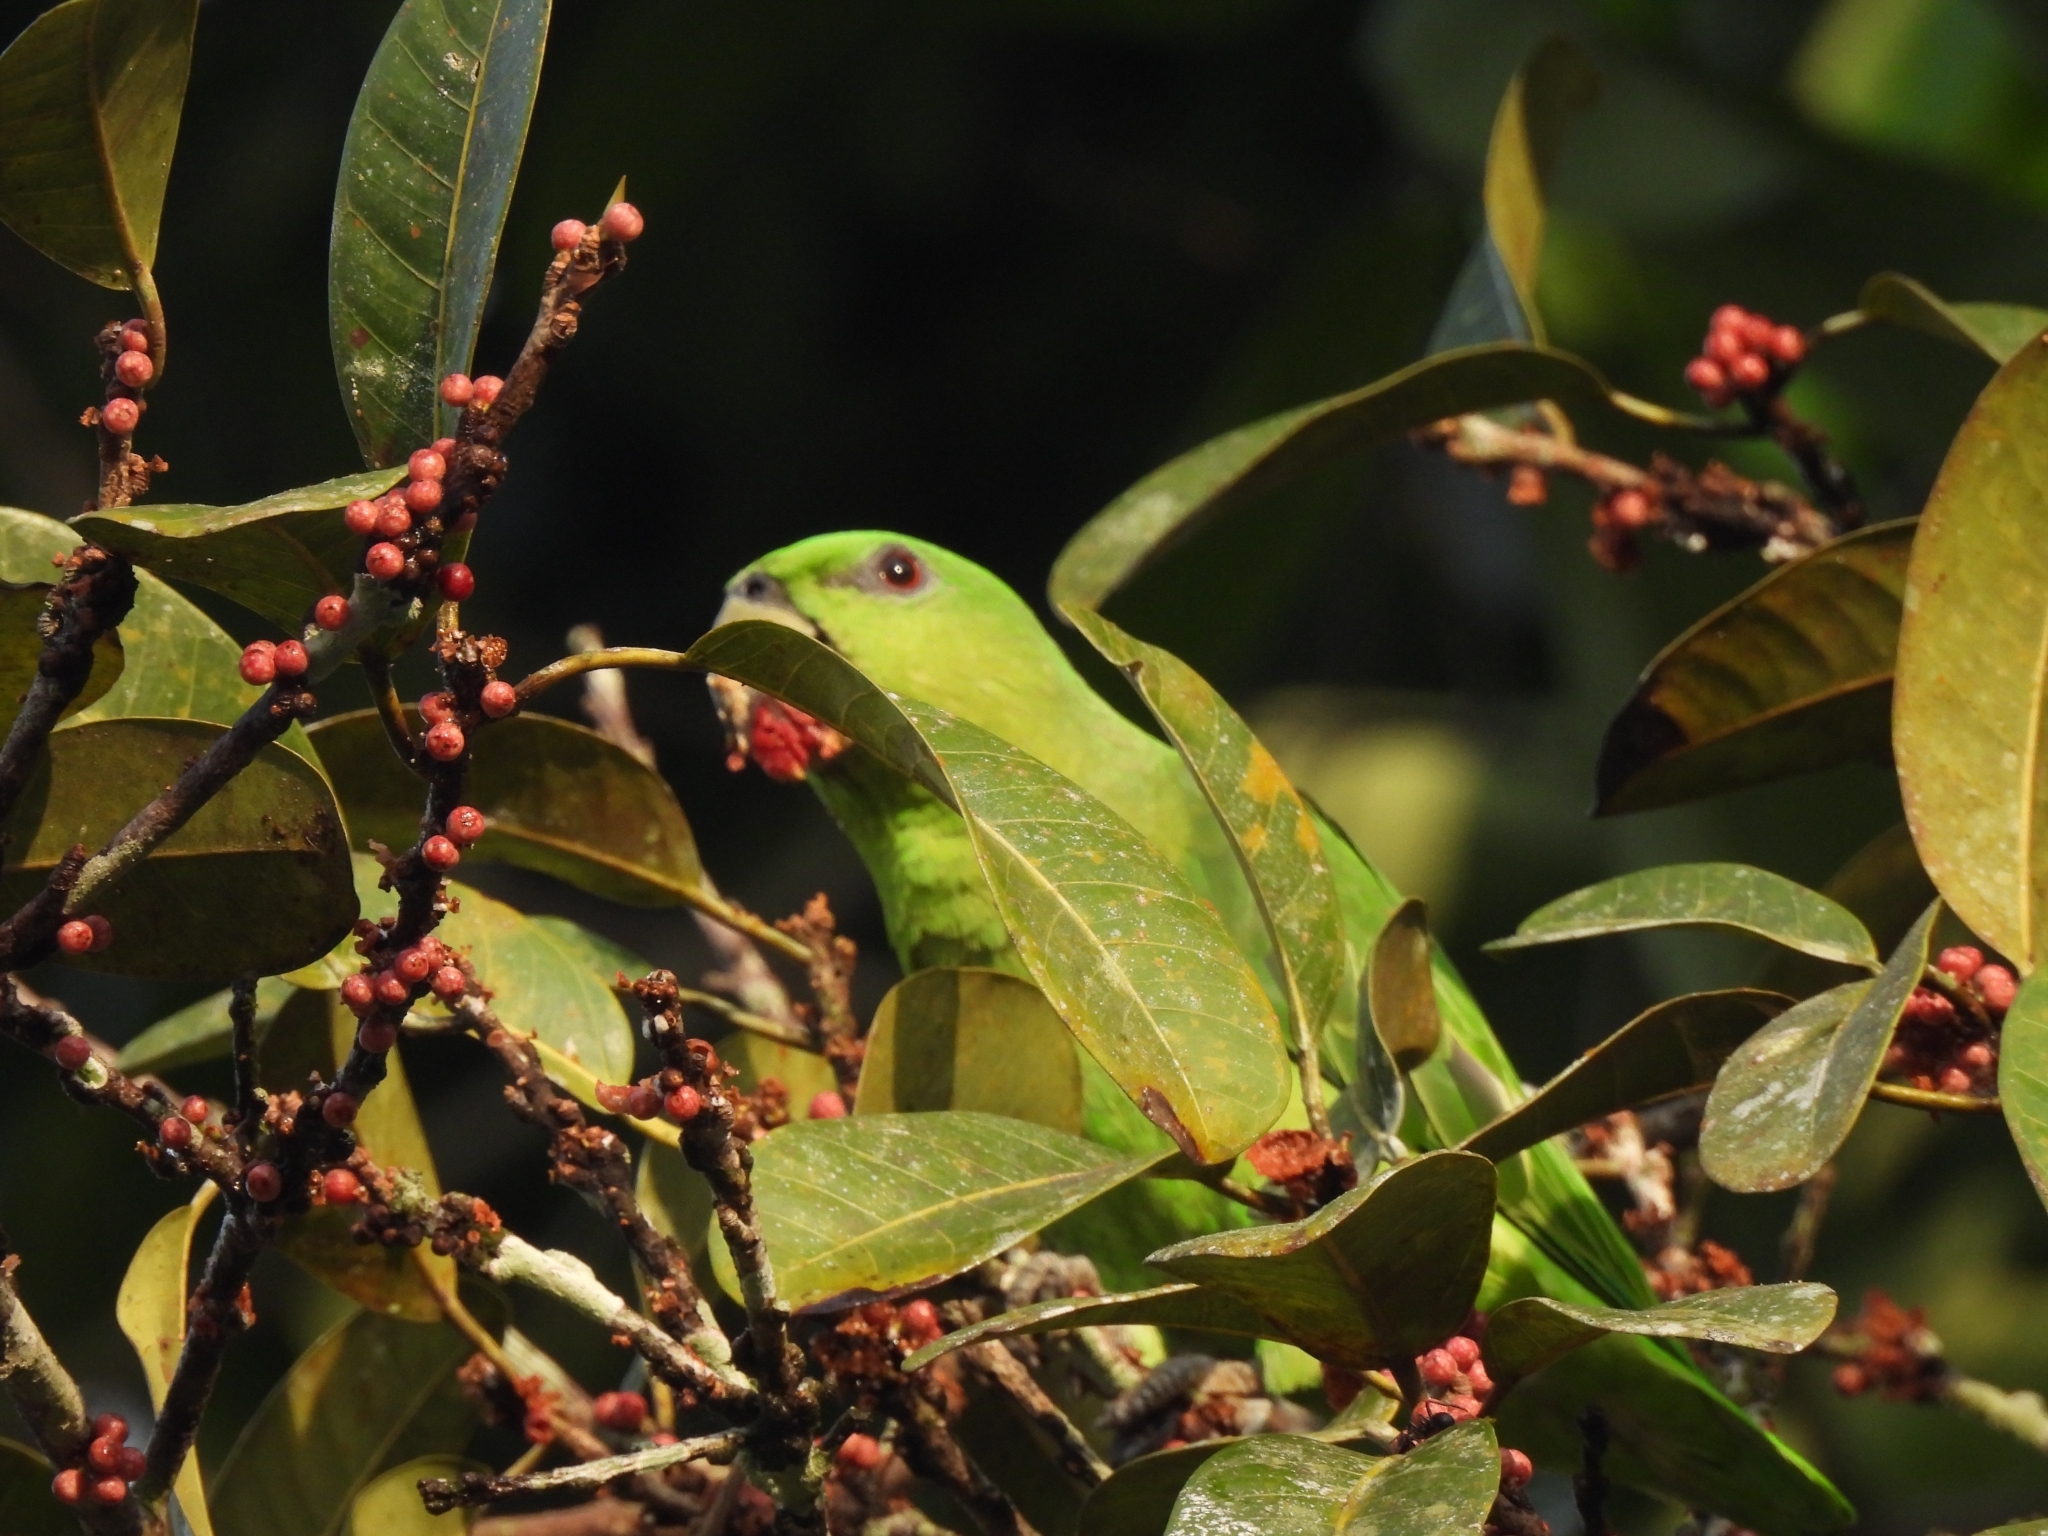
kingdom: Animalia
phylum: Chordata
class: Aves
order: Psittaciformes
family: Psittacidae
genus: Graydidascalus
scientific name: Graydidascalus brachyurus
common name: Short-tailed parrot
